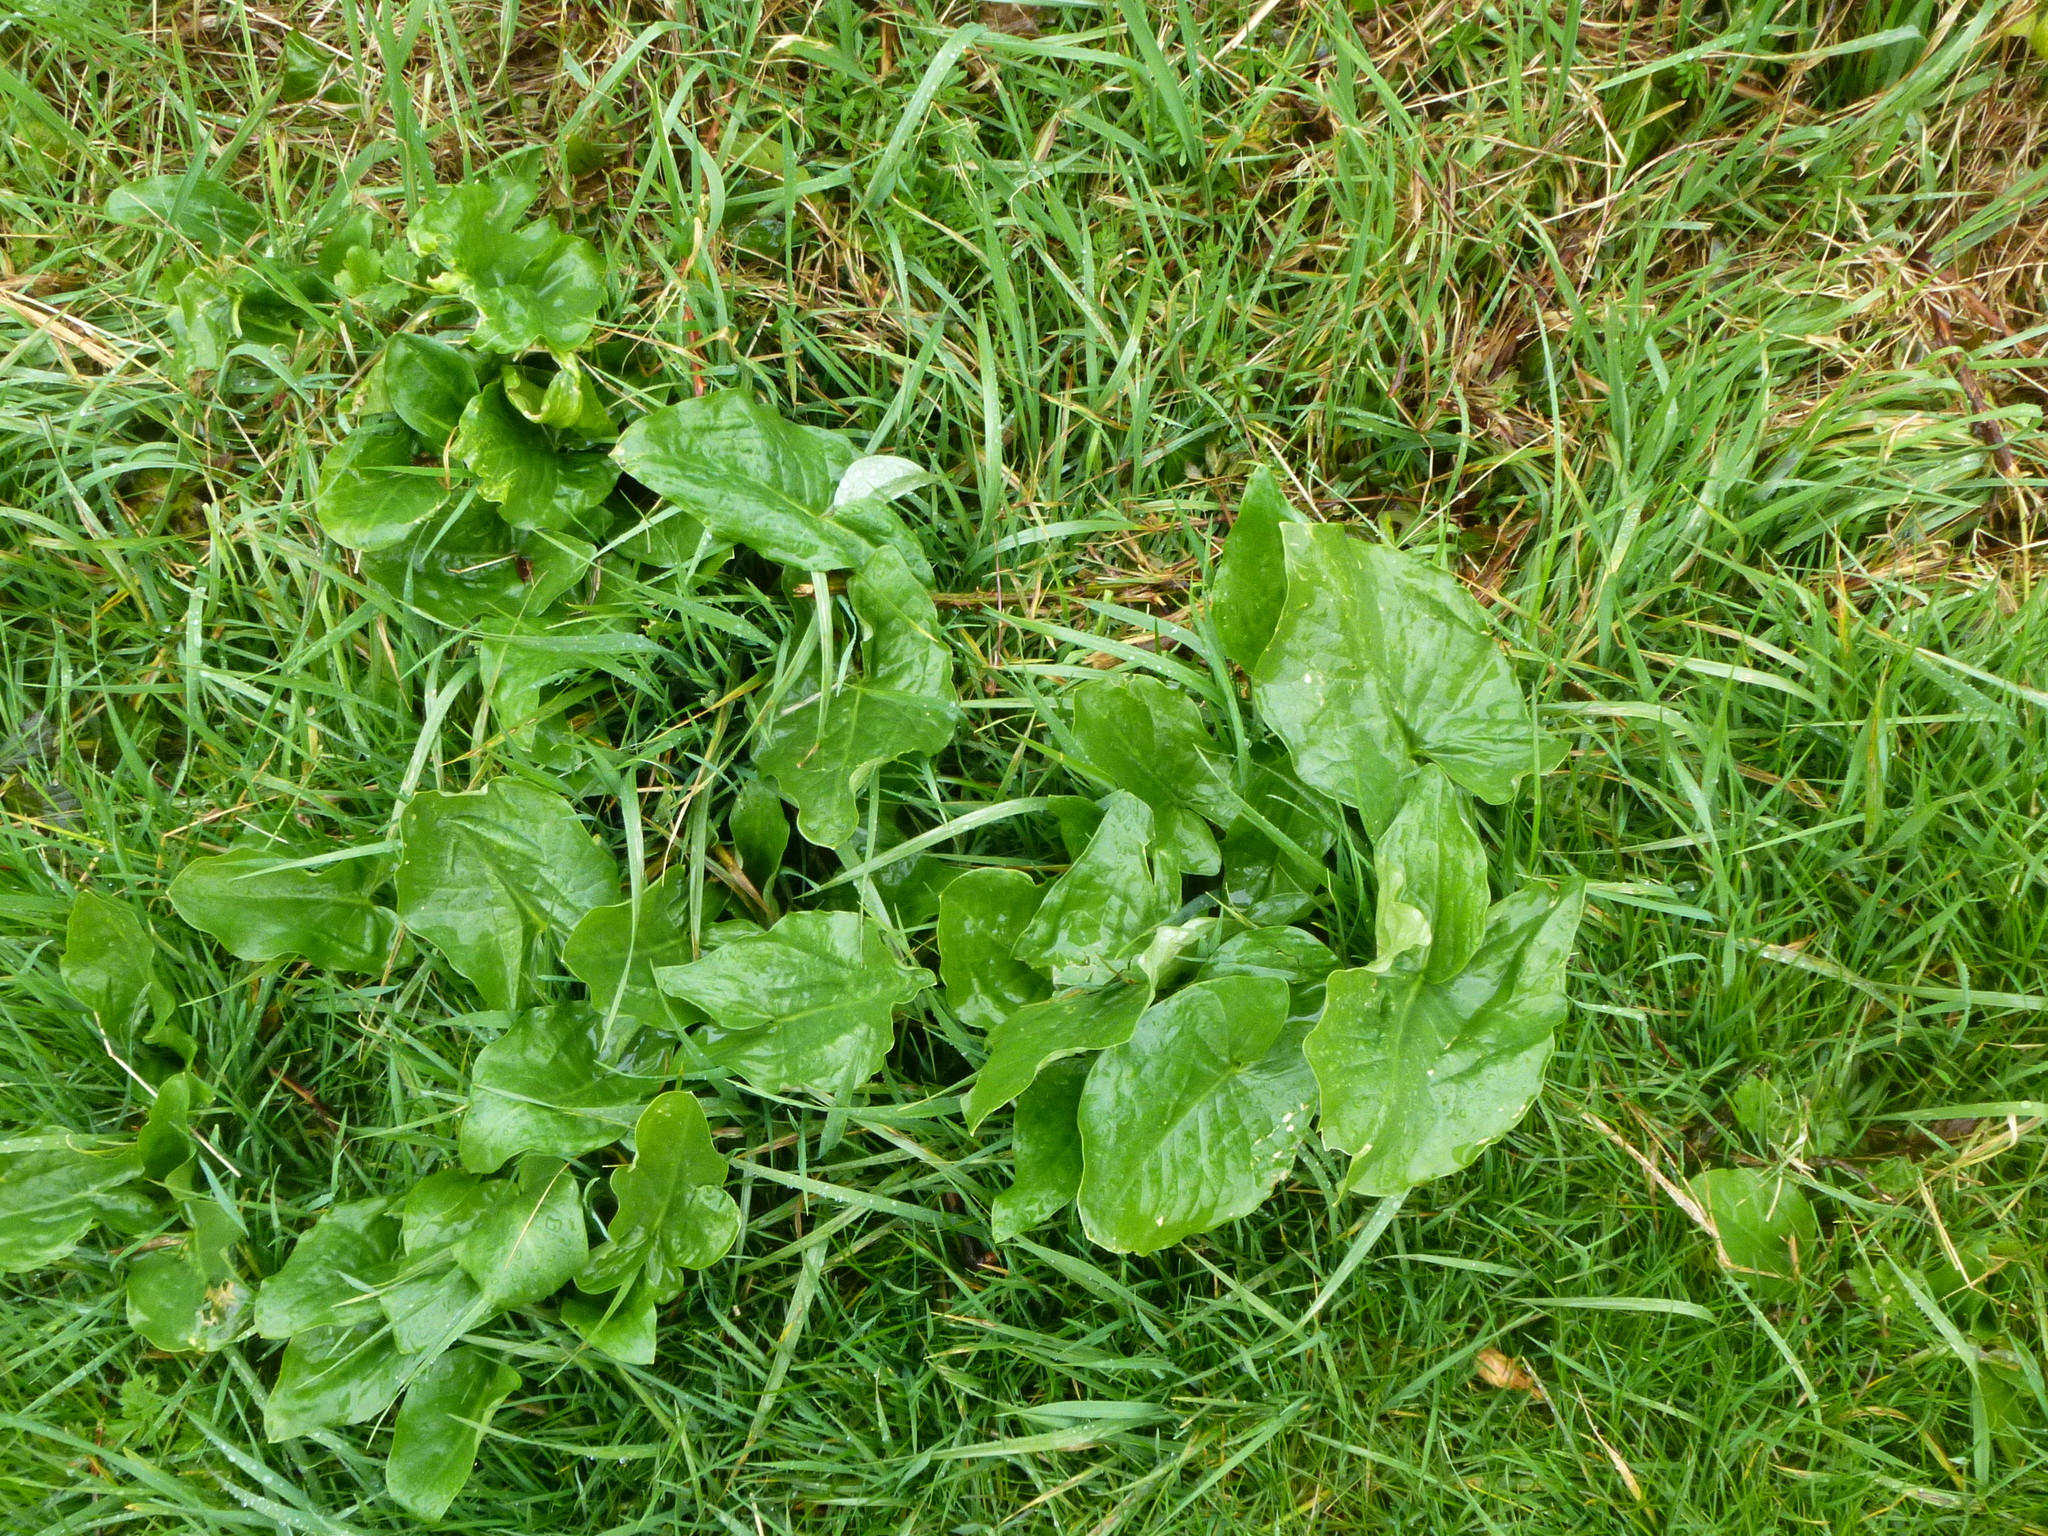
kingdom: Plantae
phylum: Tracheophyta
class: Liliopsida
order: Alismatales
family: Araceae
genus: Arum
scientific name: Arum maculatum
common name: Lords-and-ladies
